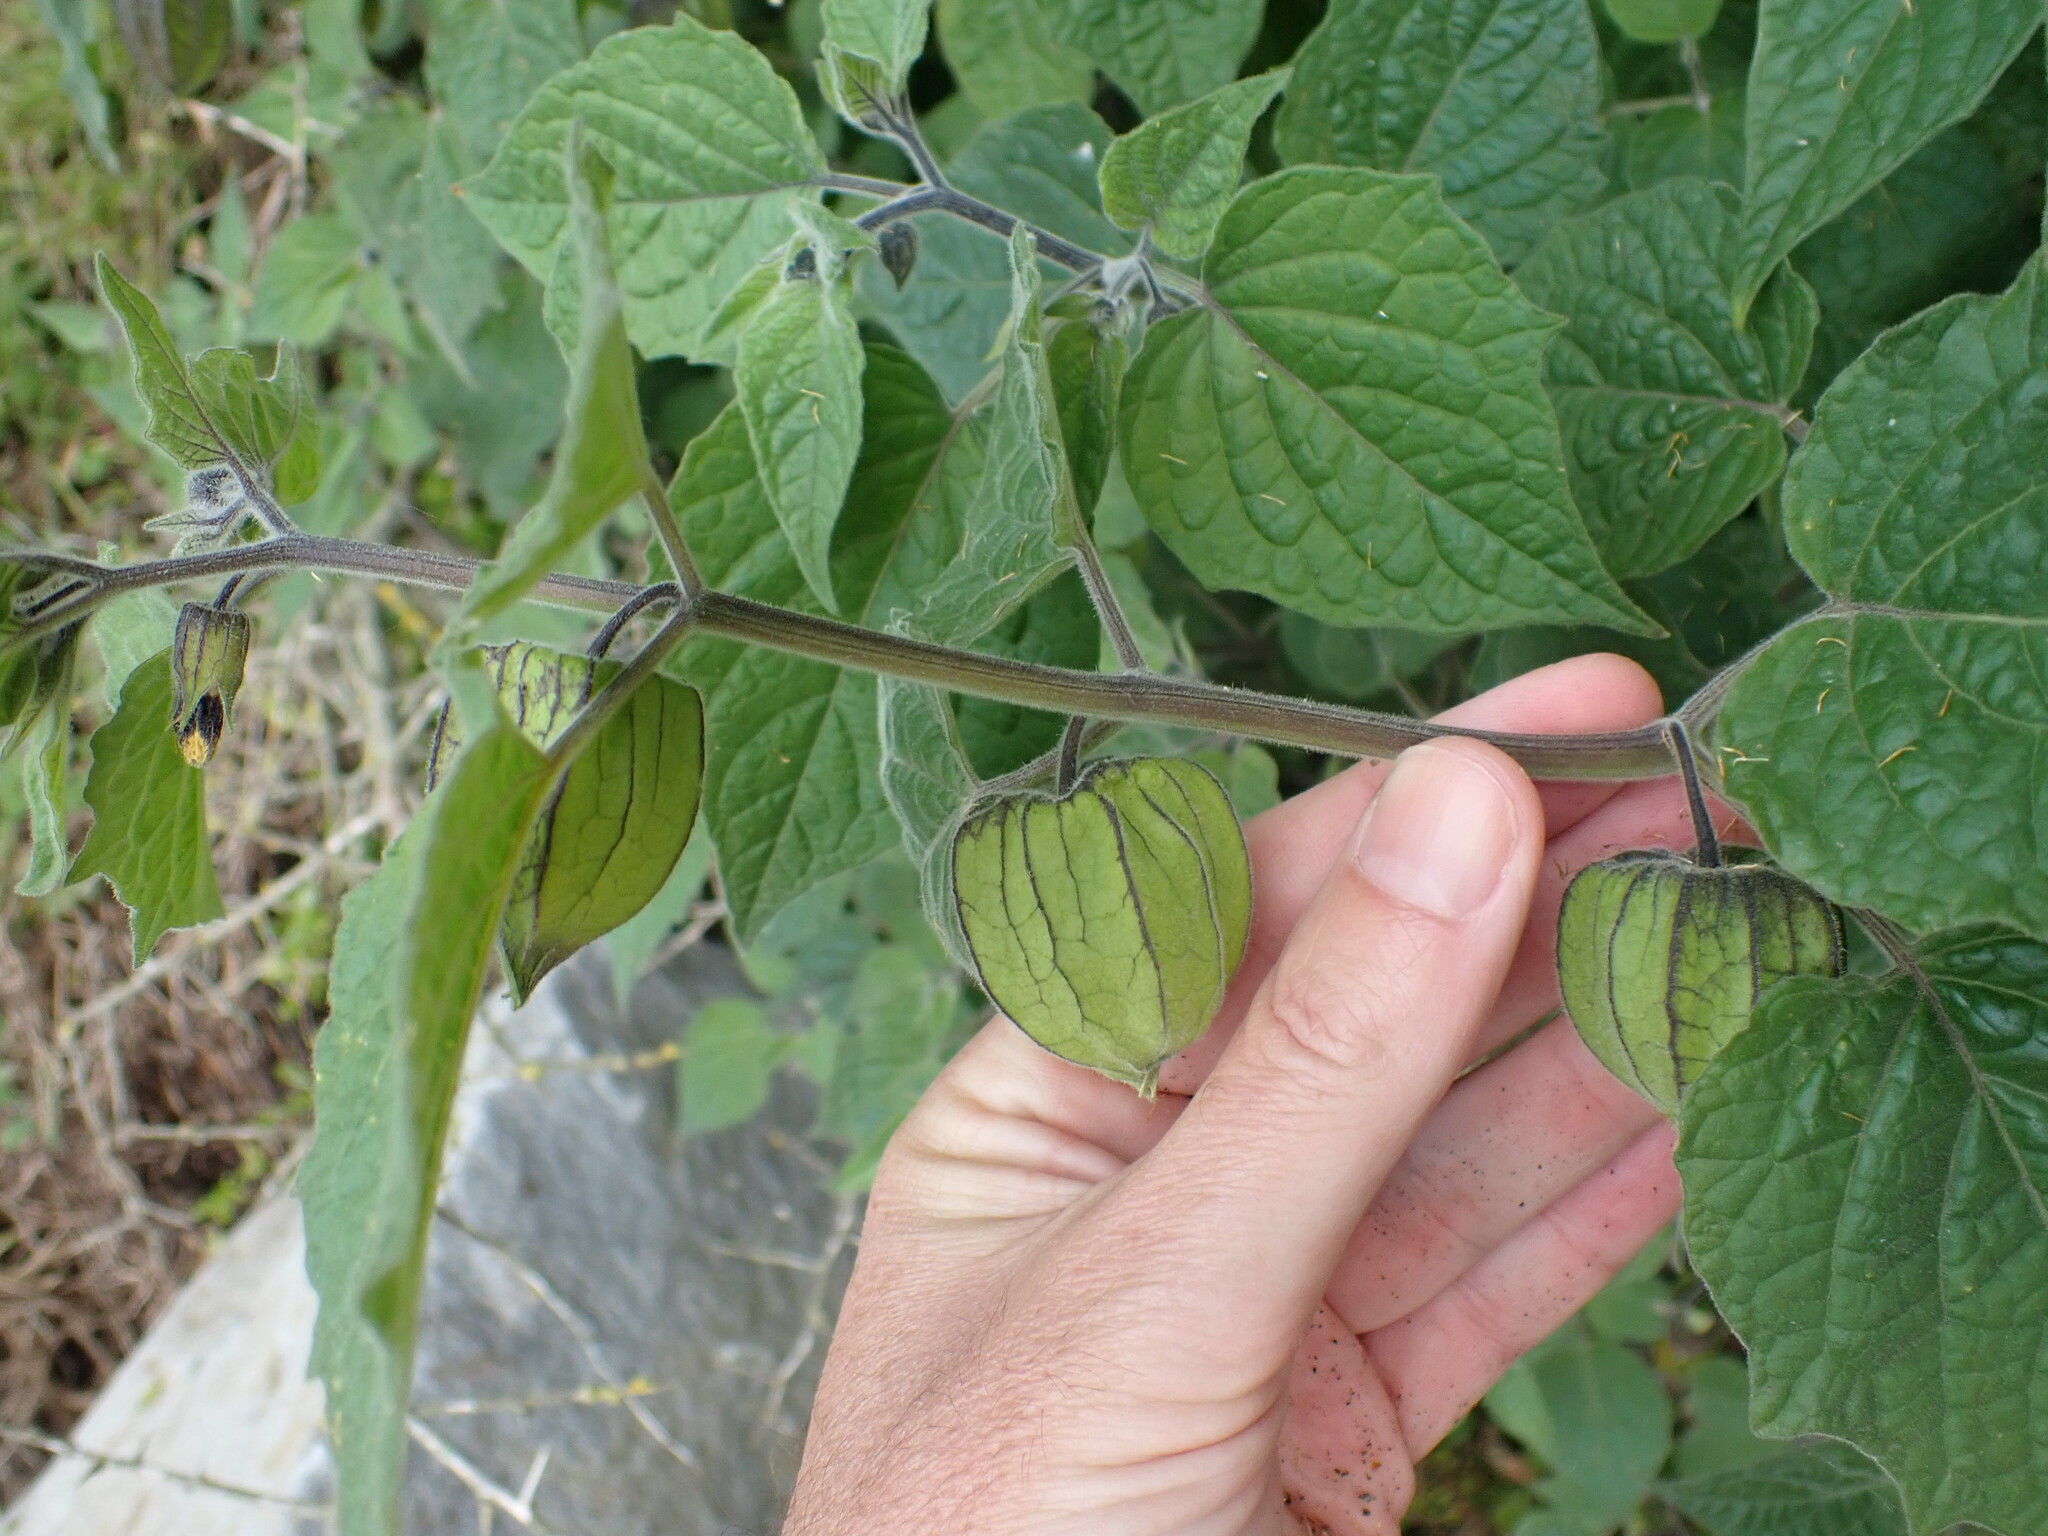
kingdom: Plantae
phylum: Tracheophyta
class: Magnoliopsida
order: Solanales
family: Solanaceae
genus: Physalis
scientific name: Physalis peruviana
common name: Cape-gooseberry
